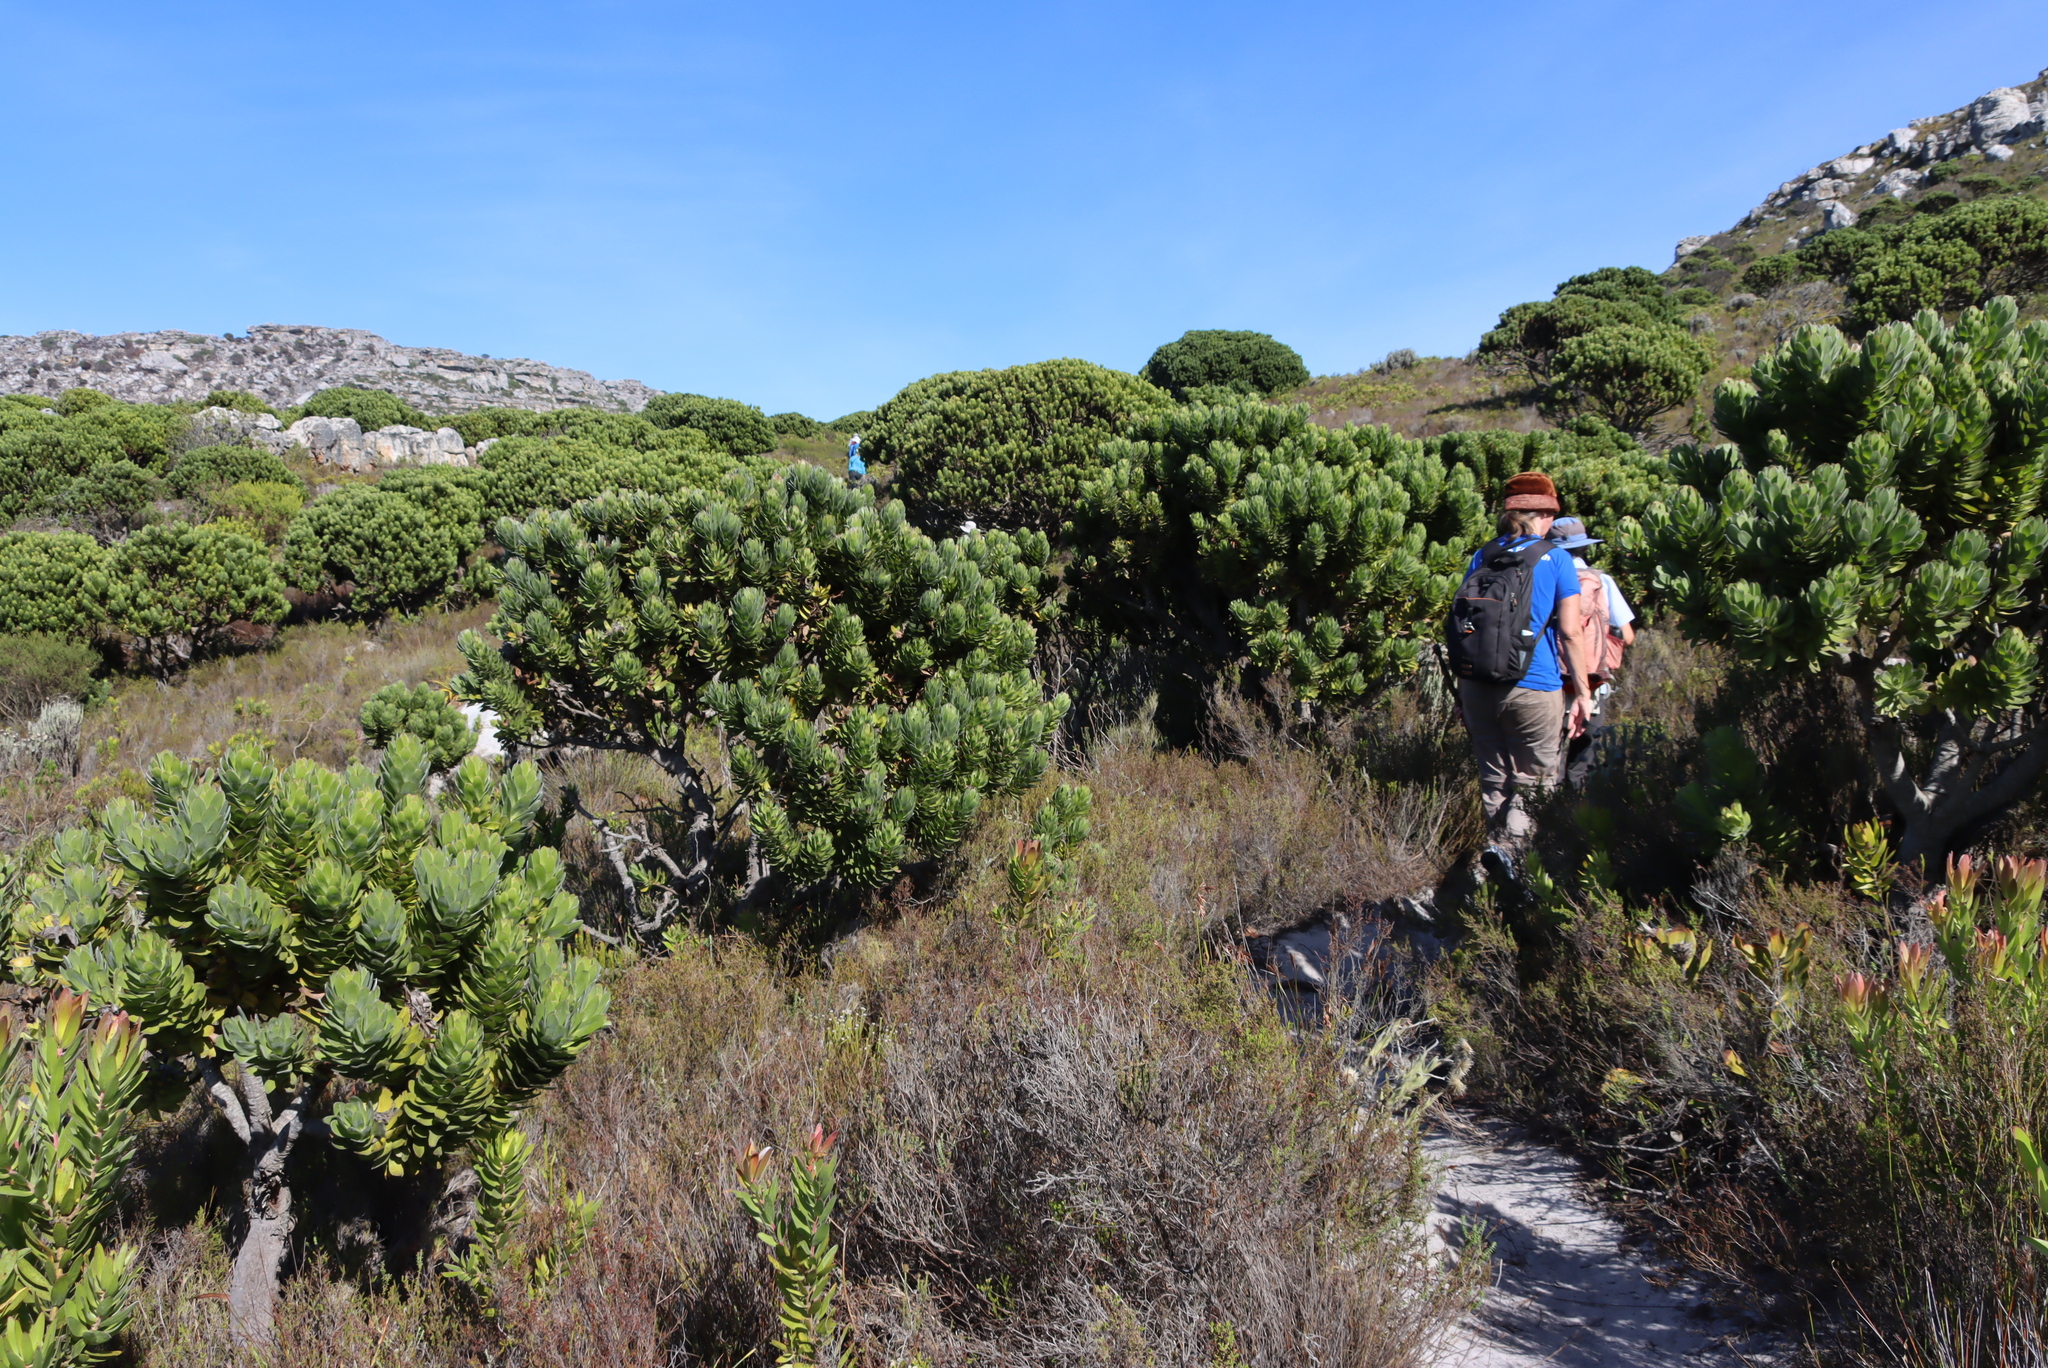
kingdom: Plantae
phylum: Tracheophyta
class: Magnoliopsida
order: Proteales
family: Proteaceae
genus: Mimetes
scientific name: Mimetes fimbriifolius
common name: Fringed bottlebrush
